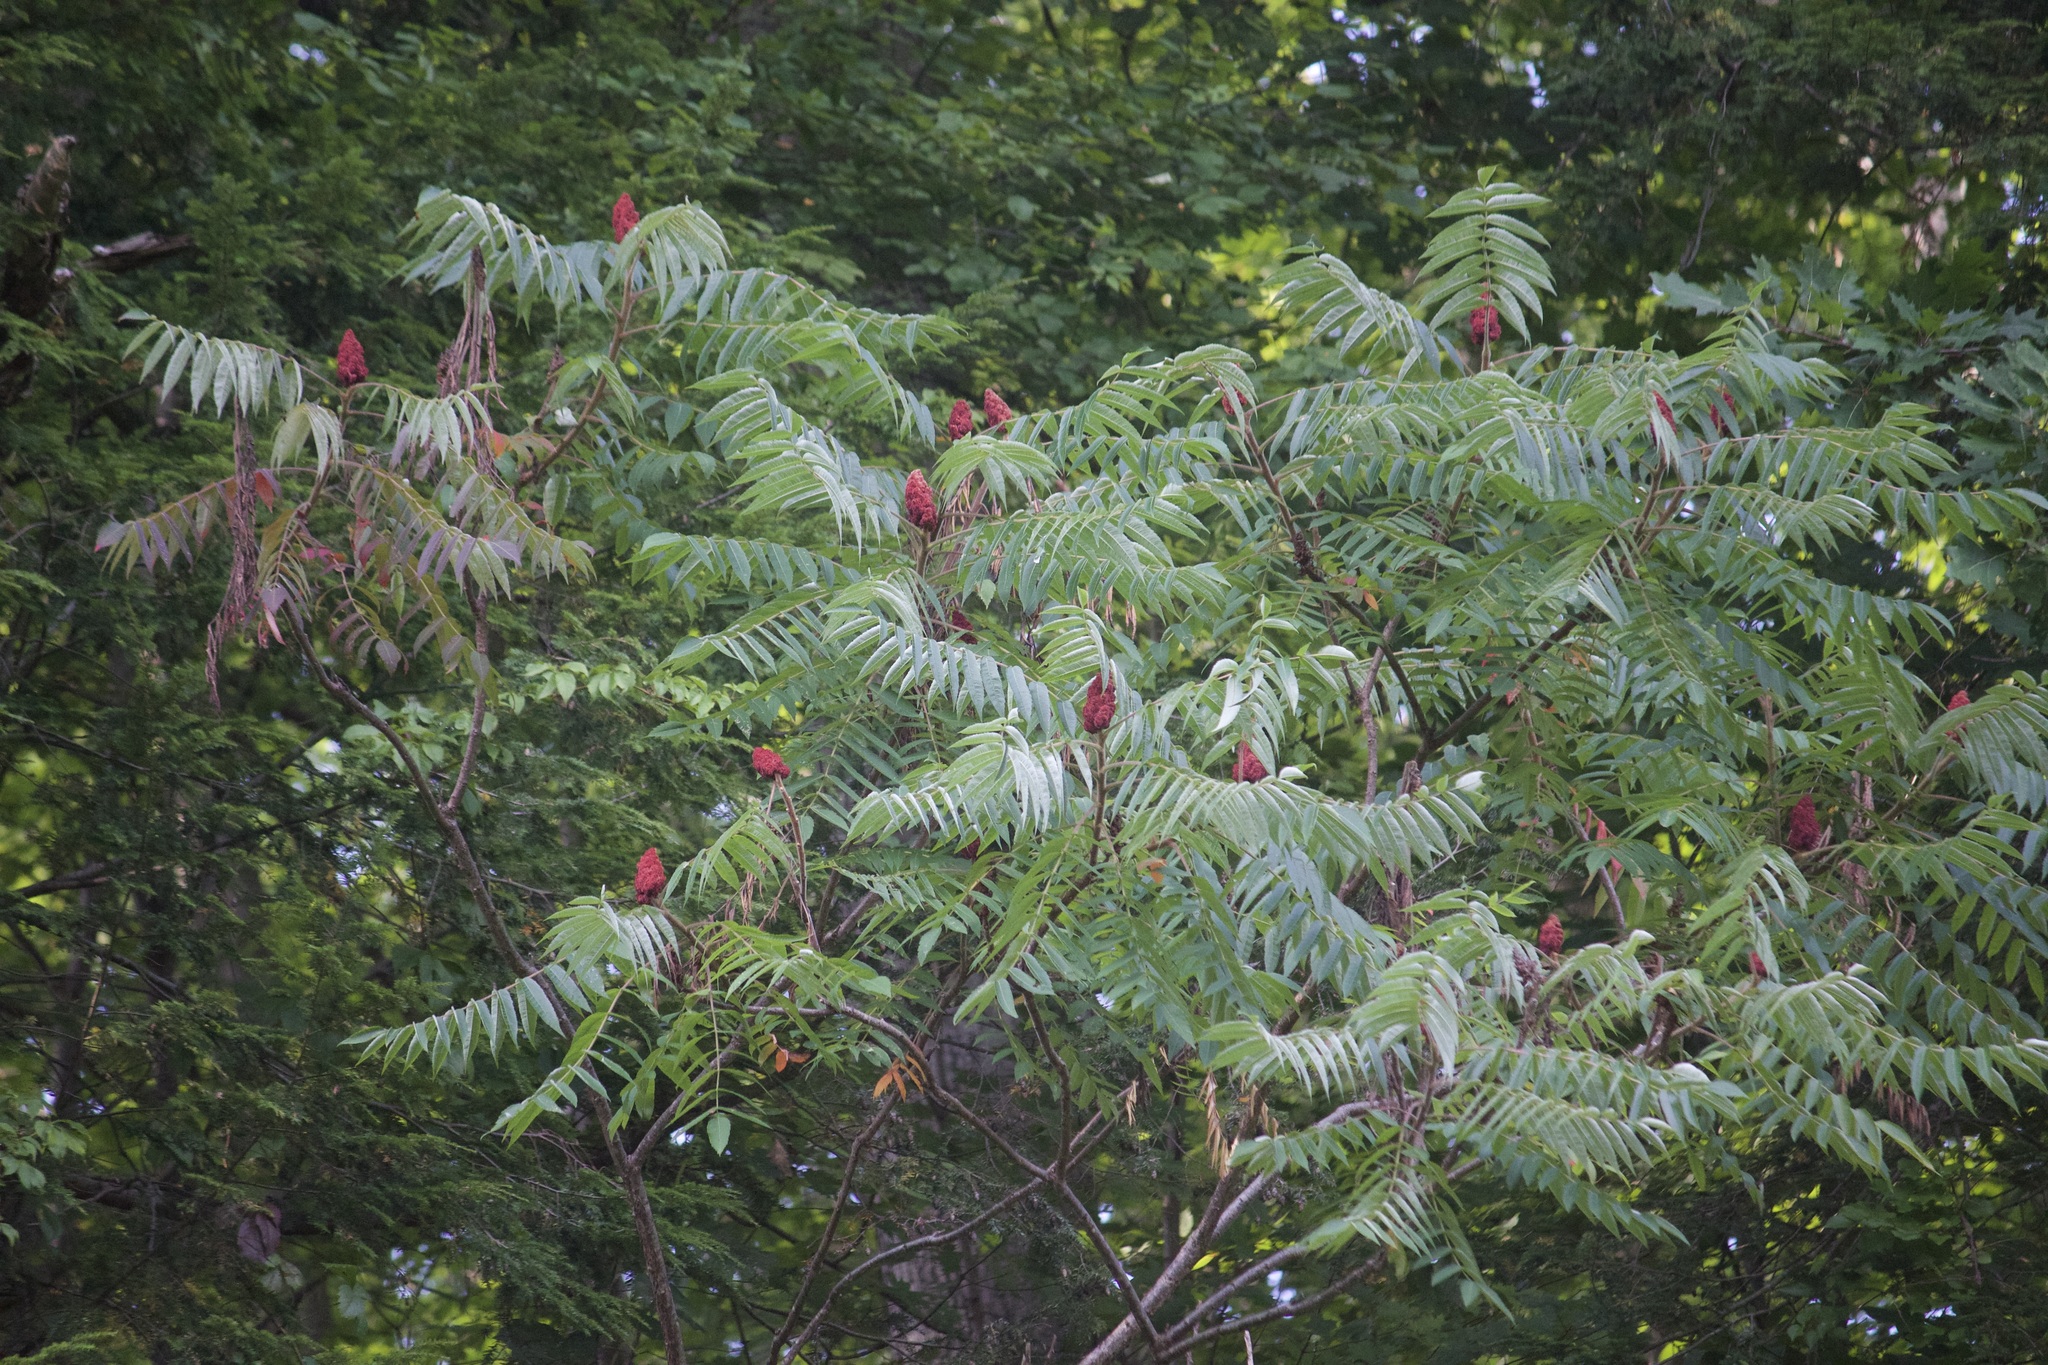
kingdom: Plantae
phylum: Tracheophyta
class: Magnoliopsida
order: Sapindales
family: Anacardiaceae
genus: Rhus
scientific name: Rhus typhina
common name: Staghorn sumac
